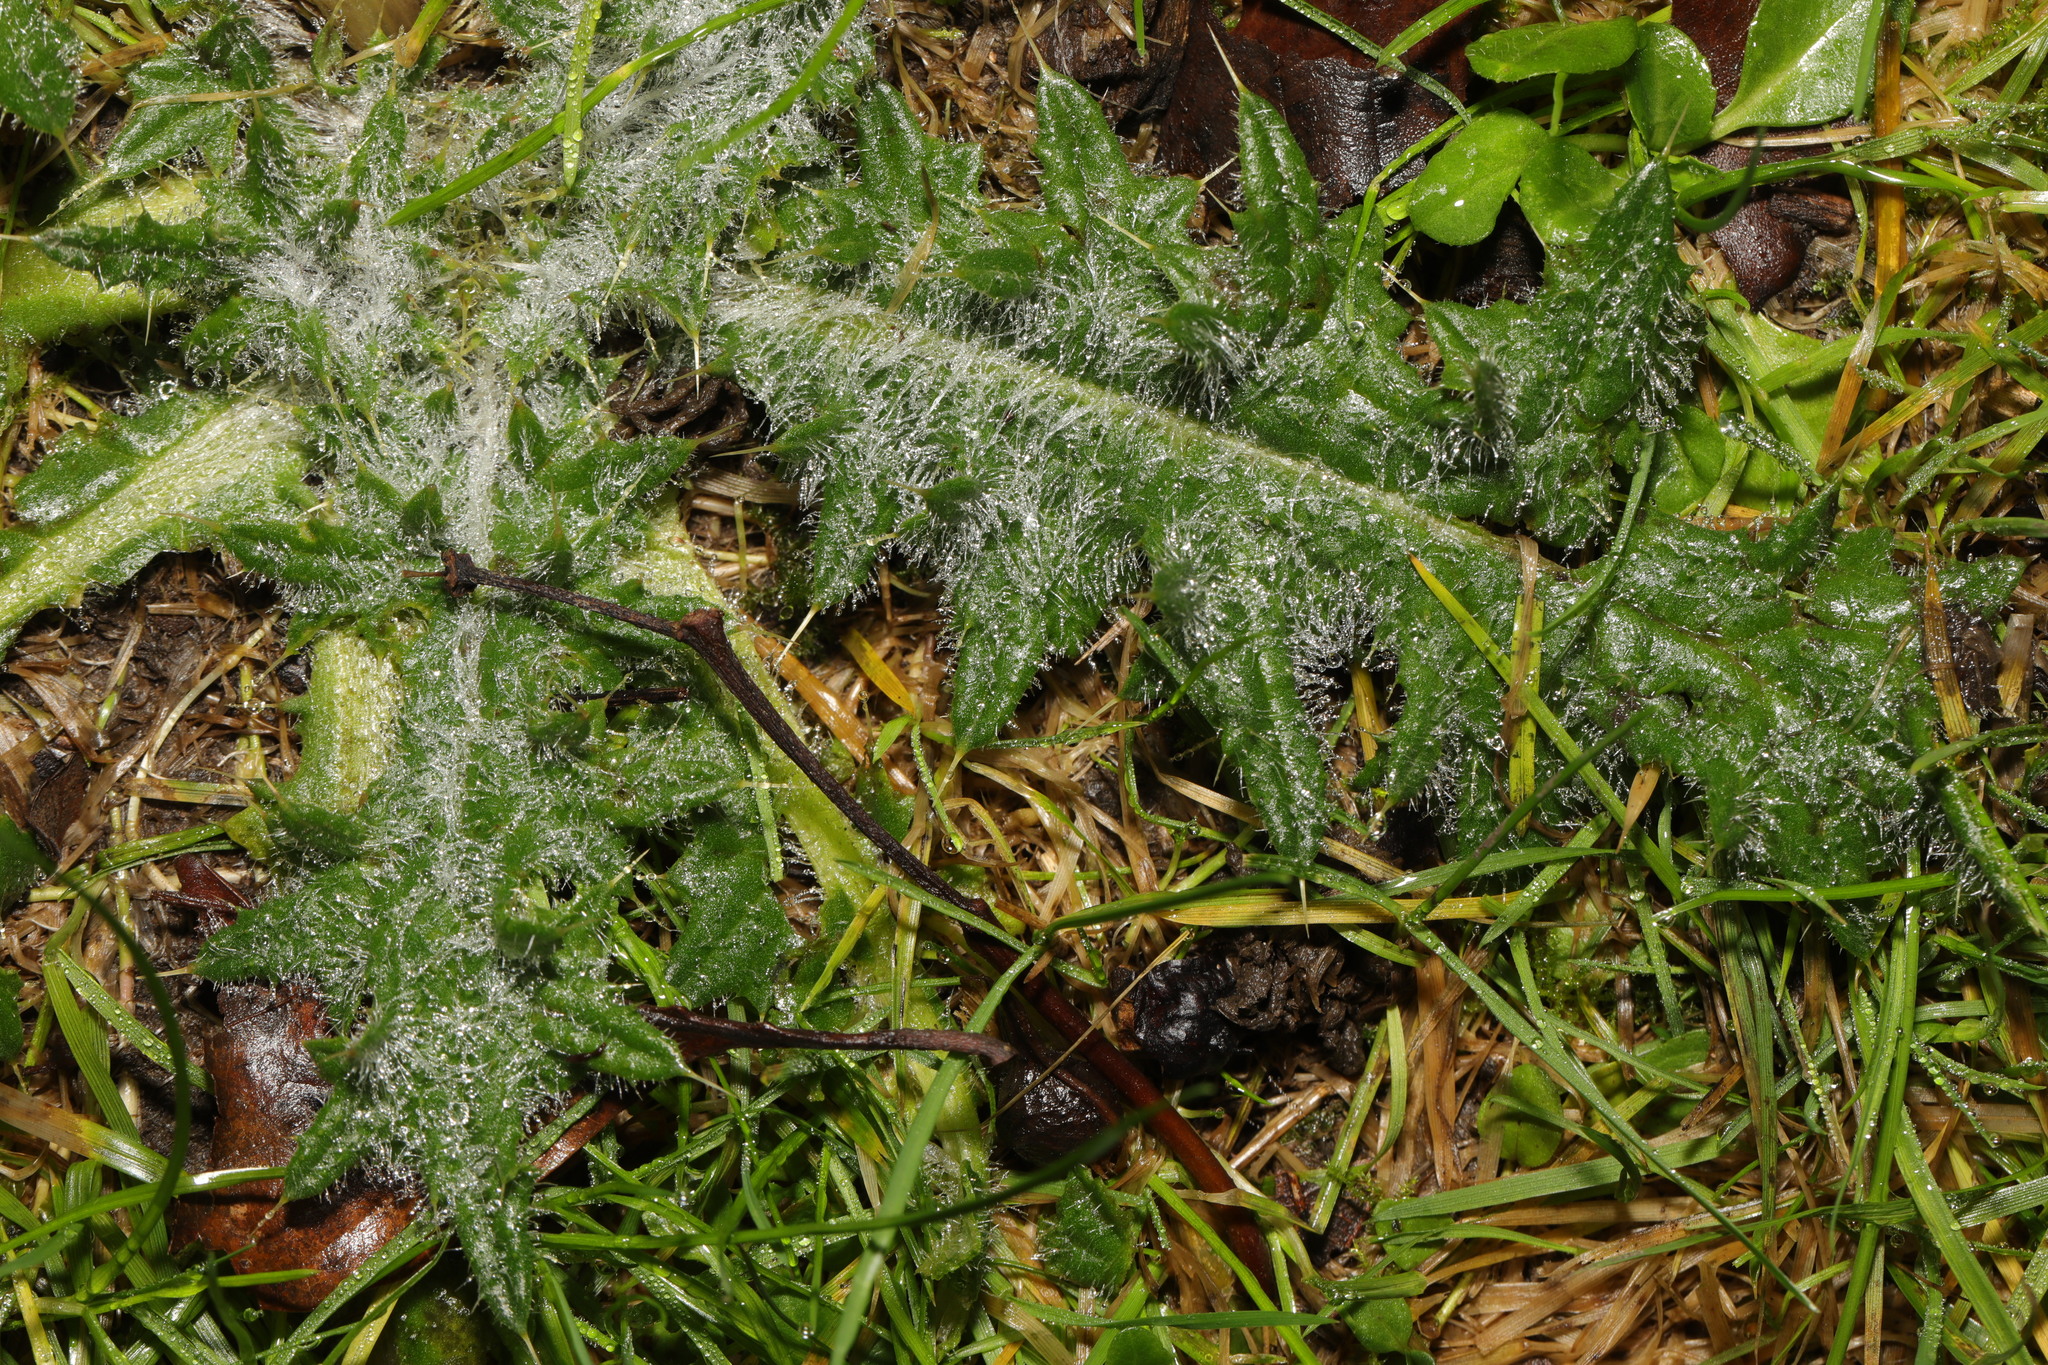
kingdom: Plantae
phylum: Tracheophyta
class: Magnoliopsida
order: Asterales
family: Asteraceae
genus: Cirsium
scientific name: Cirsium vulgare
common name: Bull thistle
